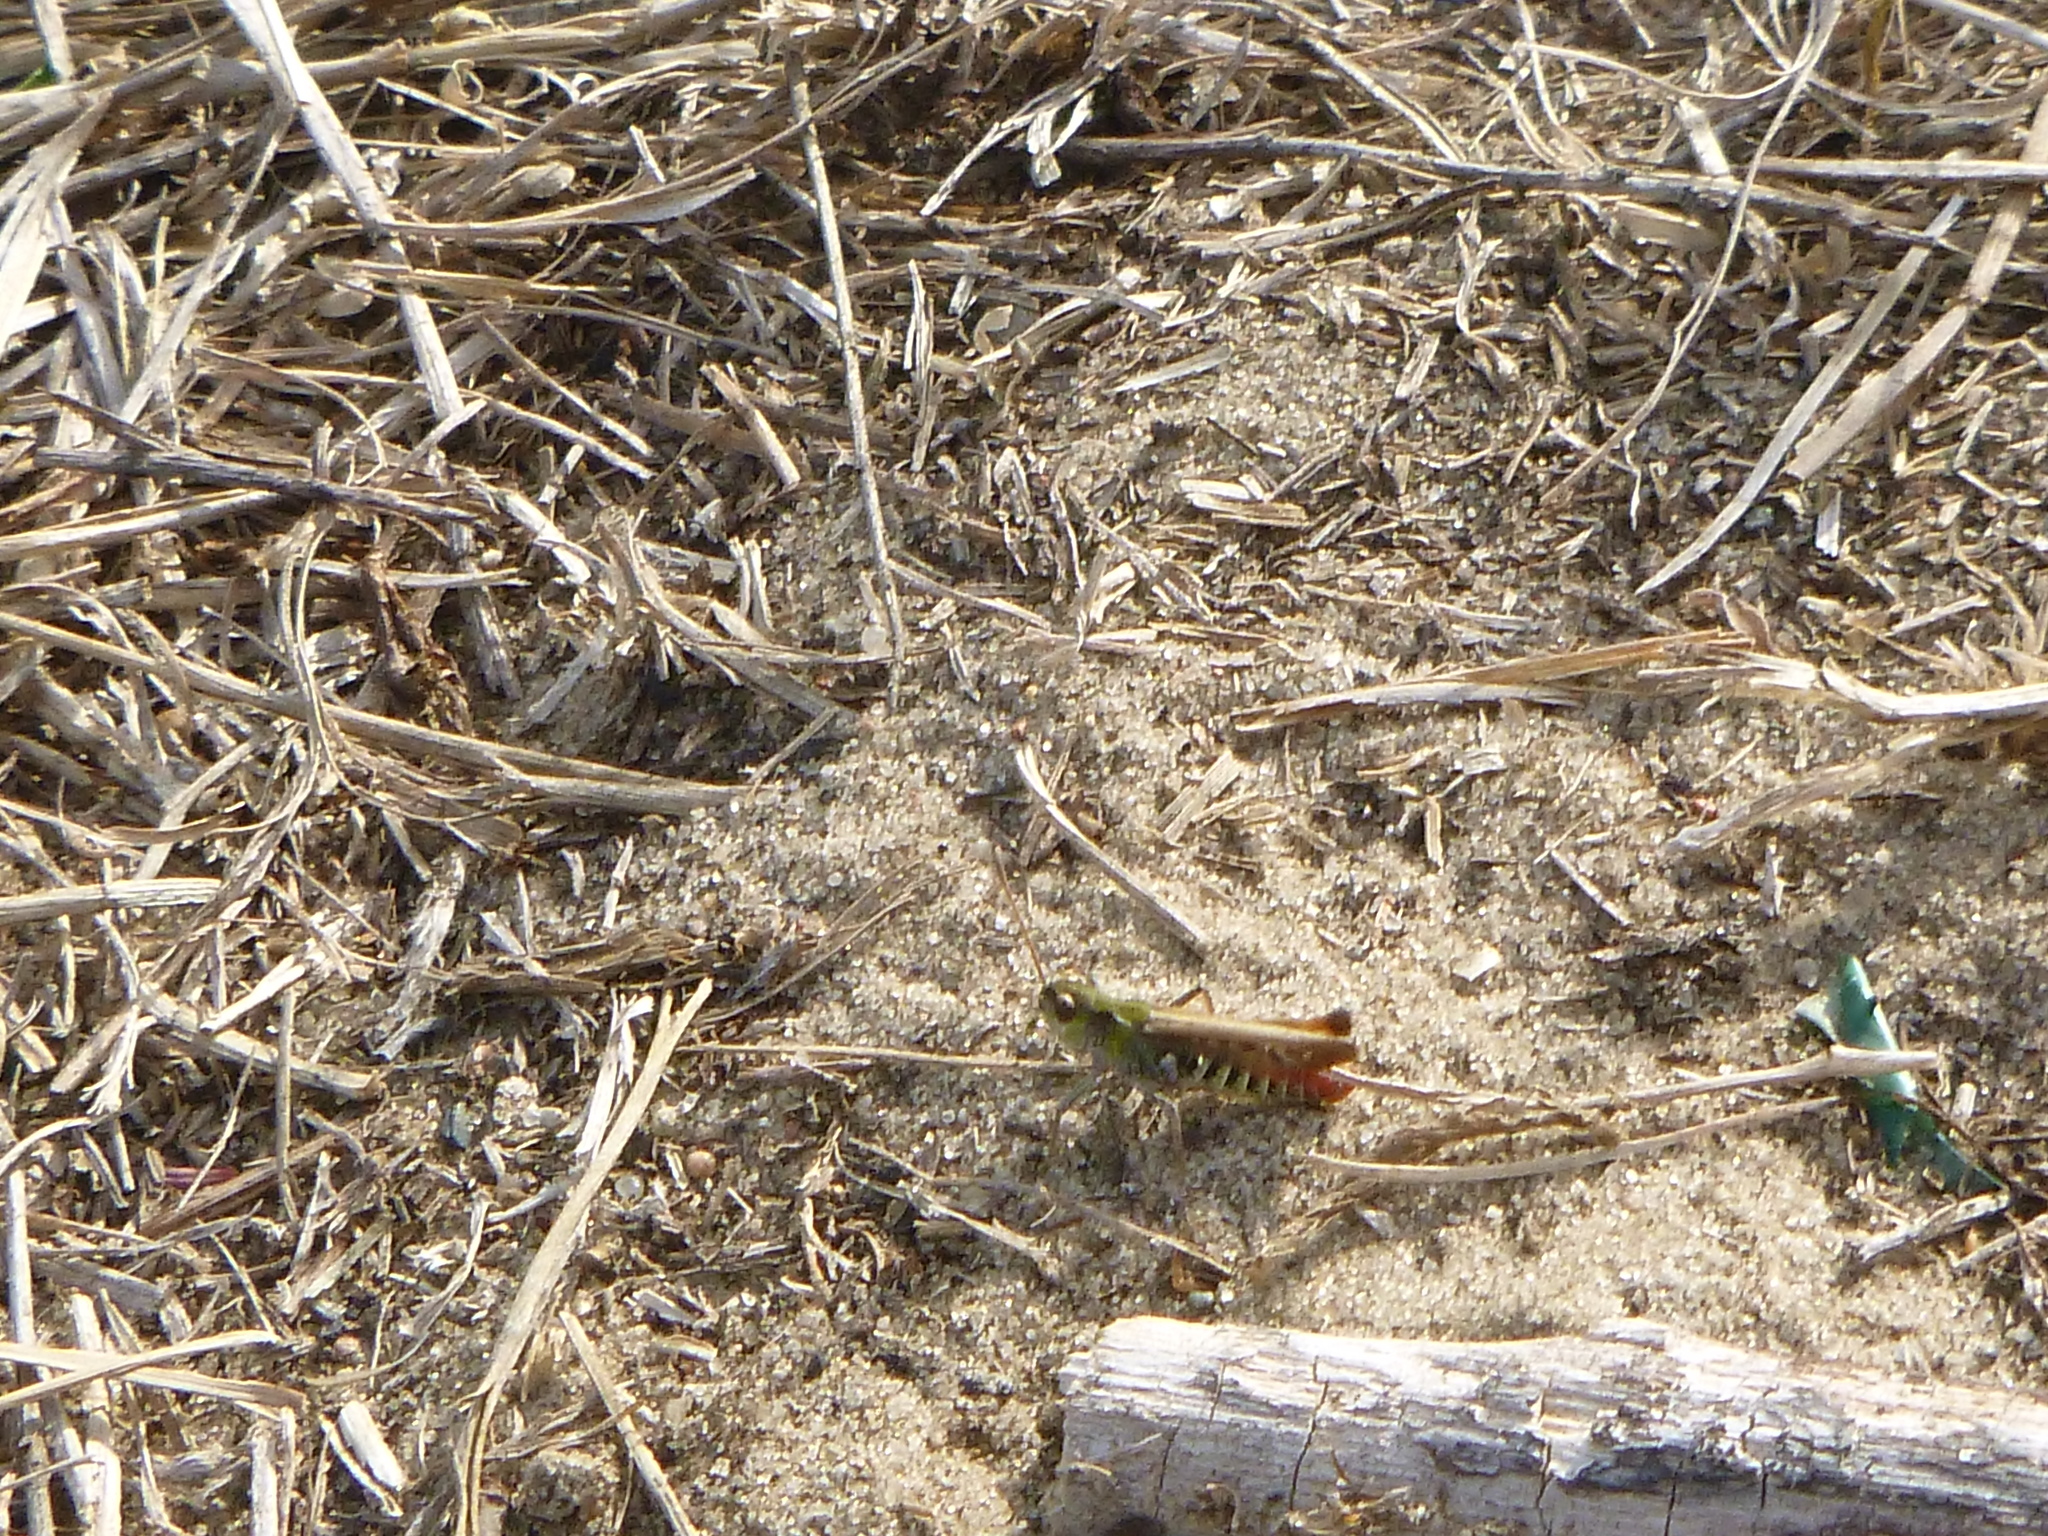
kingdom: Animalia
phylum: Arthropoda
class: Insecta
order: Orthoptera
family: Acrididae
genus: Myrmeleotettix
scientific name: Myrmeleotettix maculatus
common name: Mottled grasshopper
